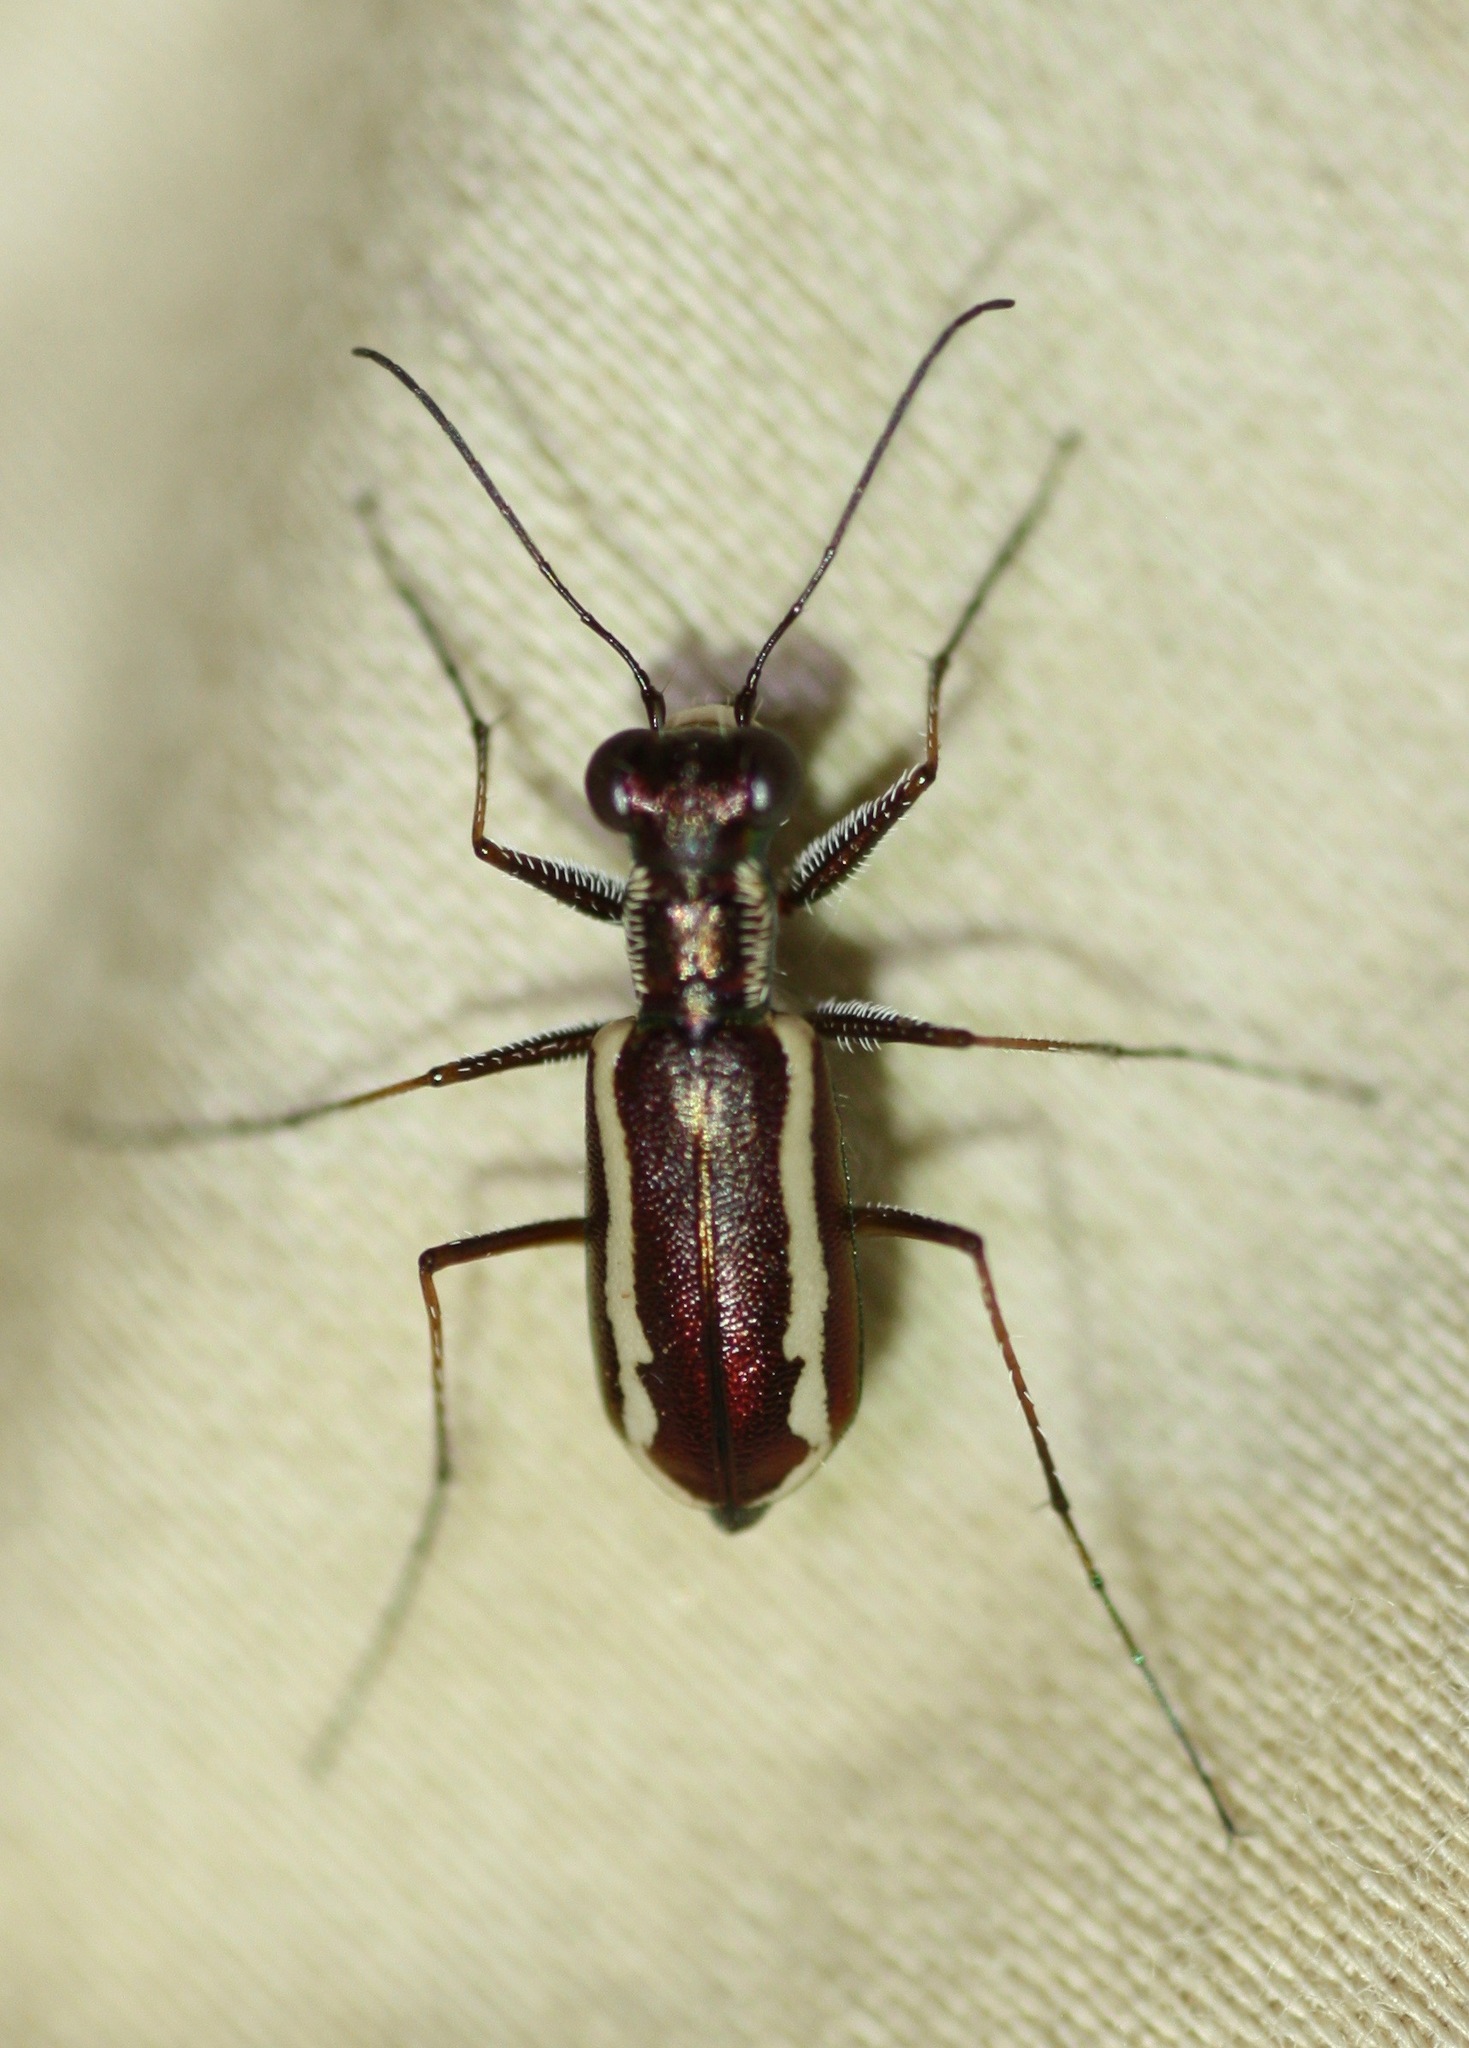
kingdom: Animalia
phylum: Arthropoda
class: Insecta
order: Coleoptera
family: Carabidae
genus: Cylindera
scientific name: Cylindera lemniscata
